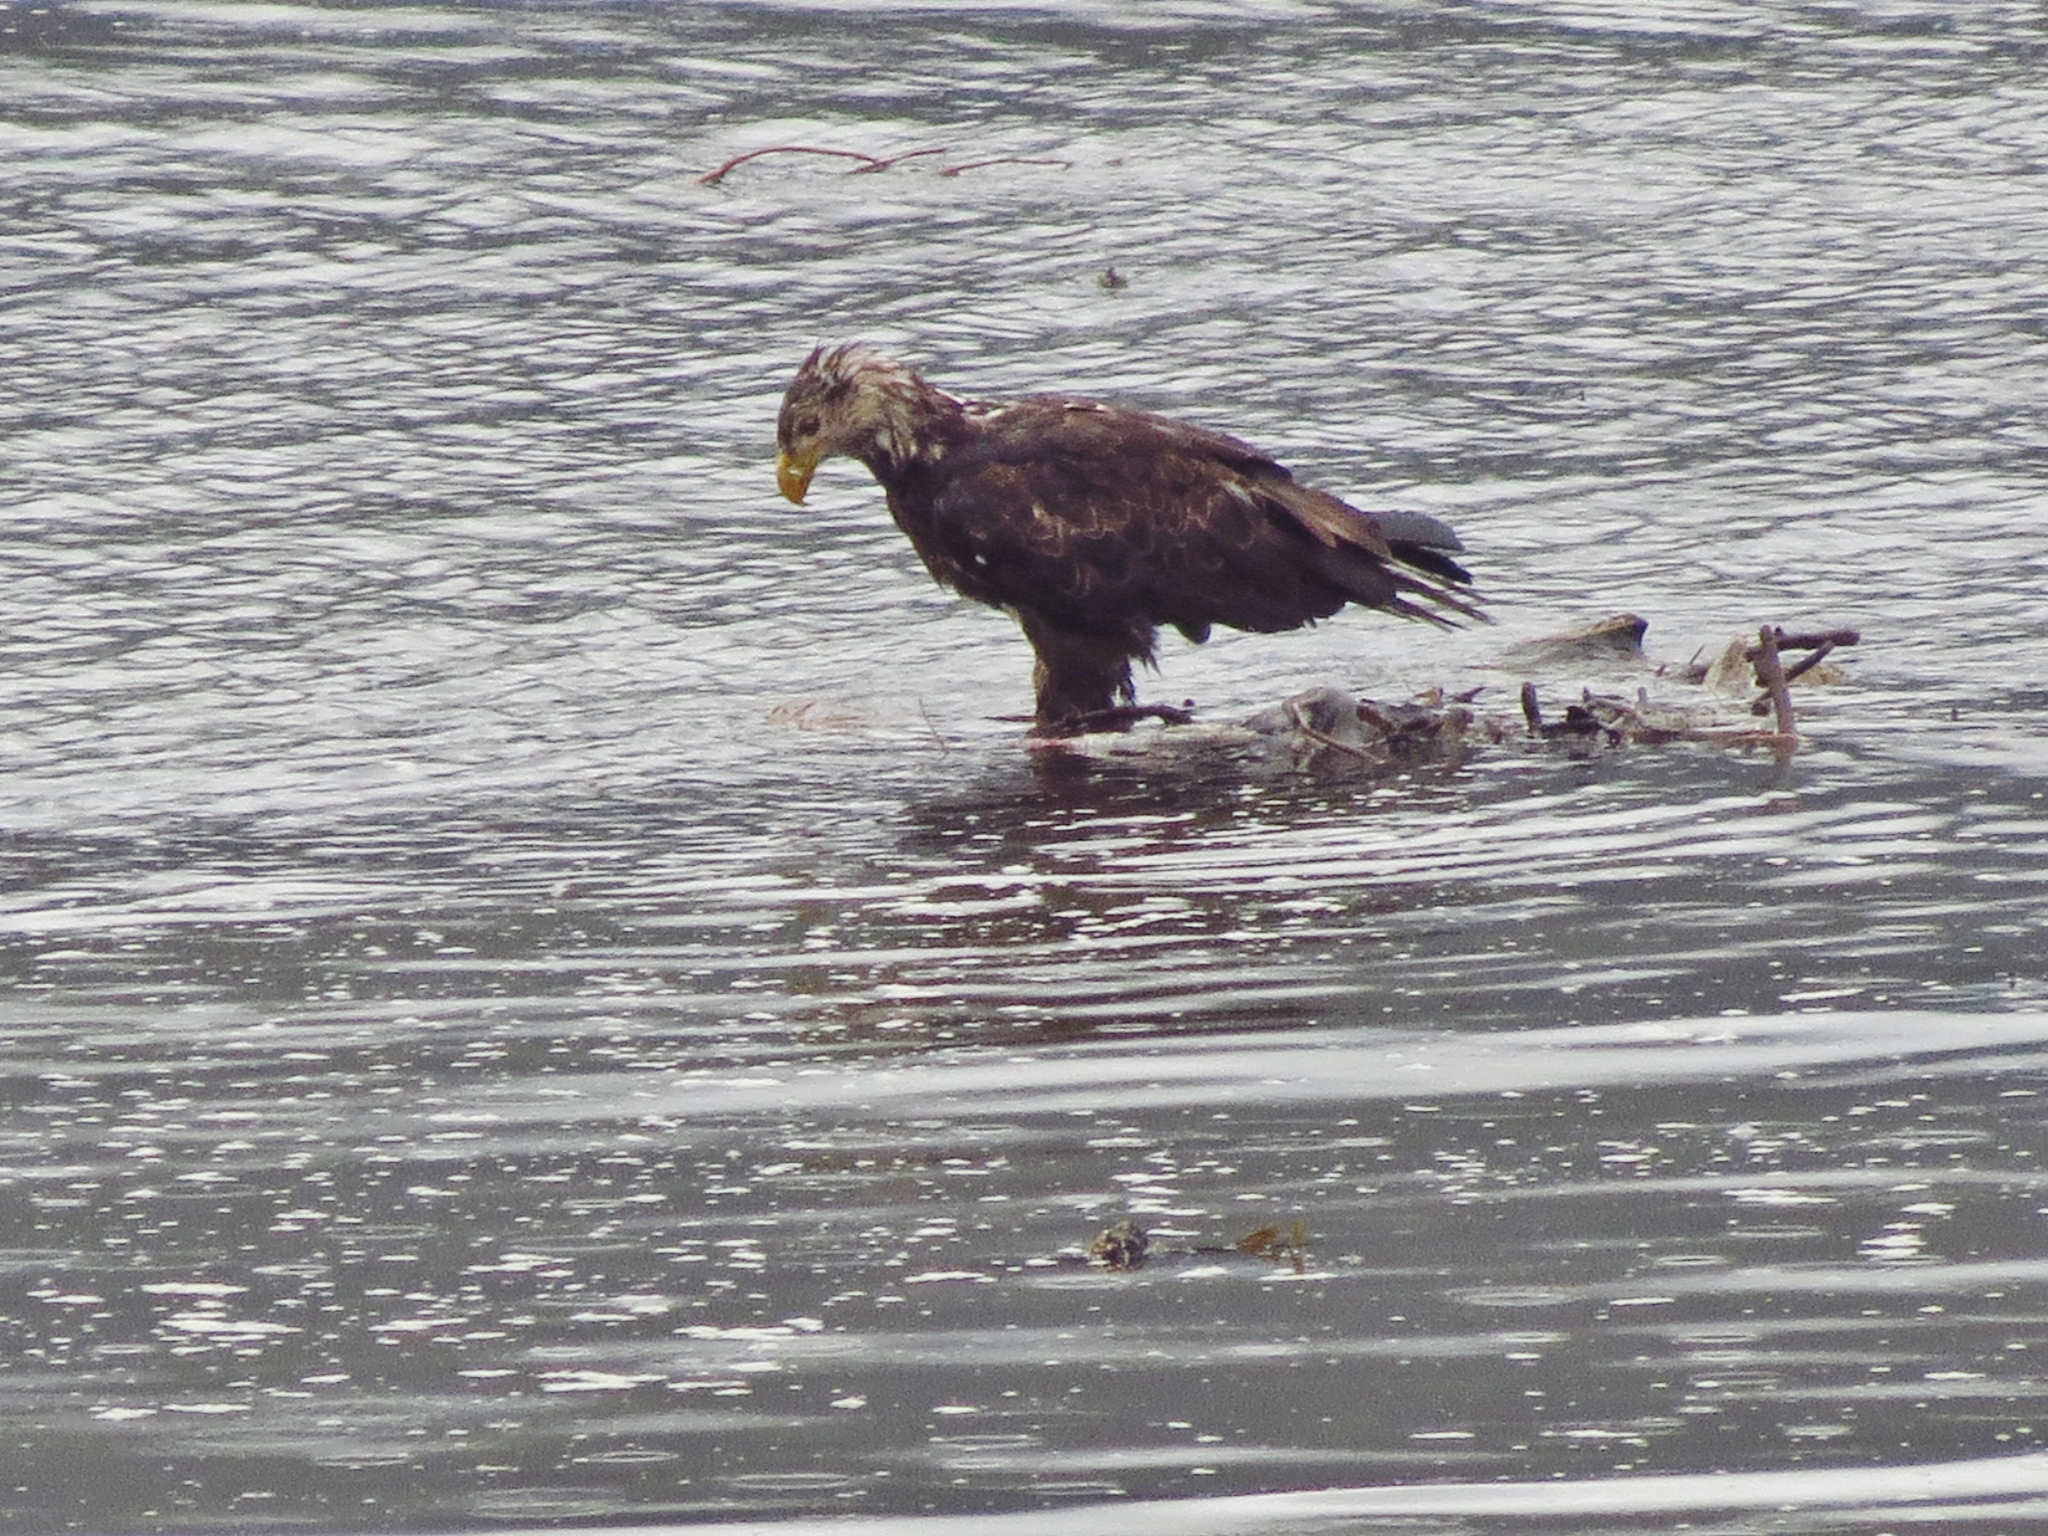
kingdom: Animalia
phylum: Chordata
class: Aves
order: Accipitriformes
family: Accipitridae
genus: Haliaeetus
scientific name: Haliaeetus leucocephalus
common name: Bald eagle
